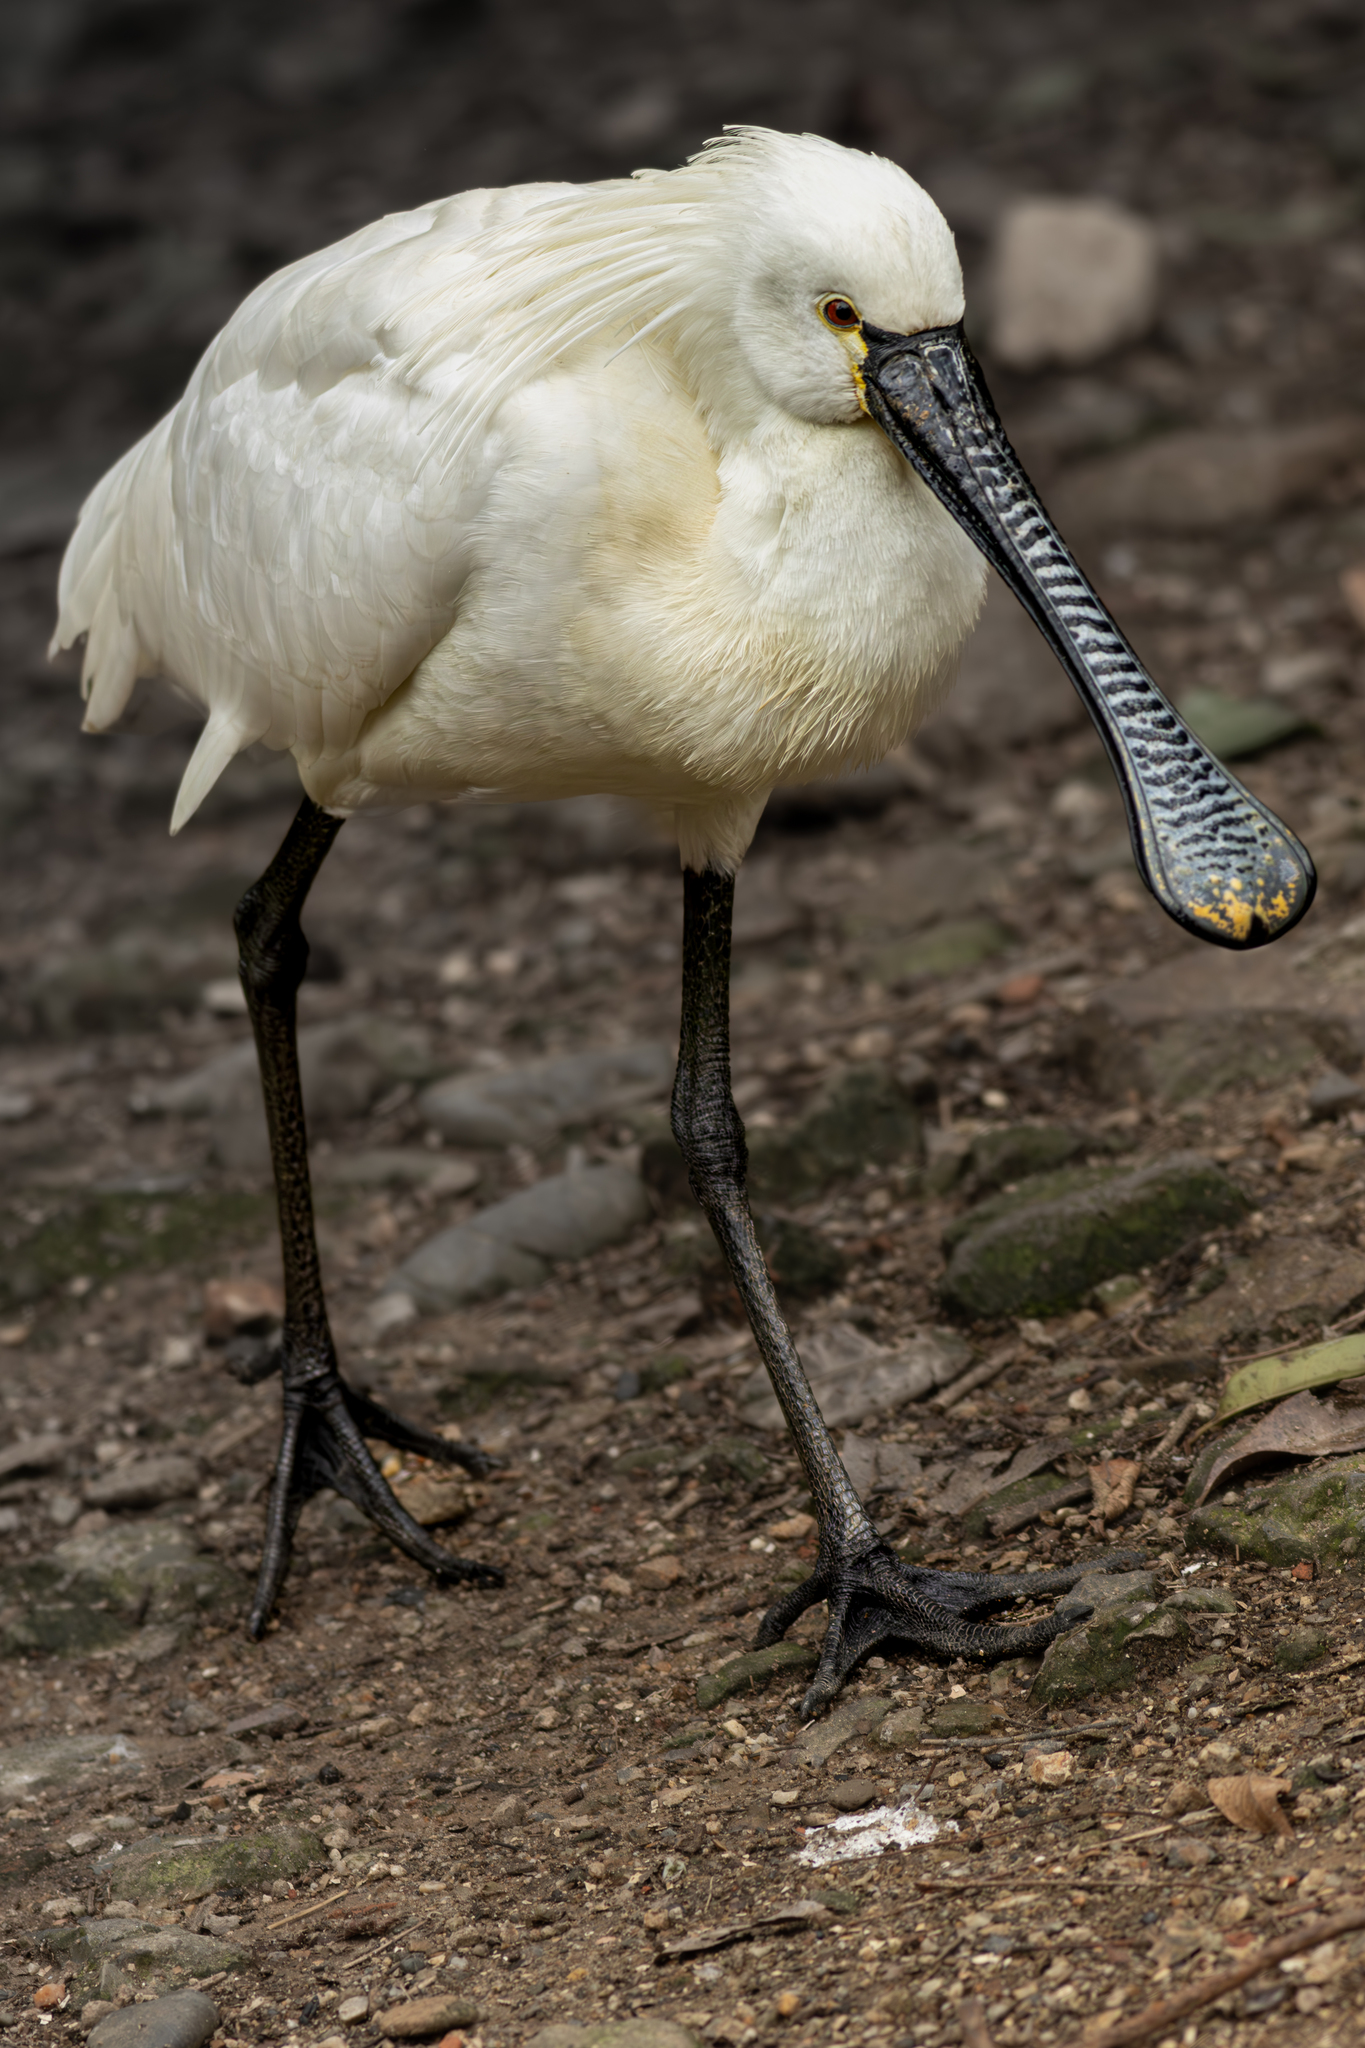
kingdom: Animalia
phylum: Chordata
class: Aves
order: Pelecaniformes
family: Threskiornithidae
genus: Platalea
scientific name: Platalea leucorodia
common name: Eurasian spoonbill
